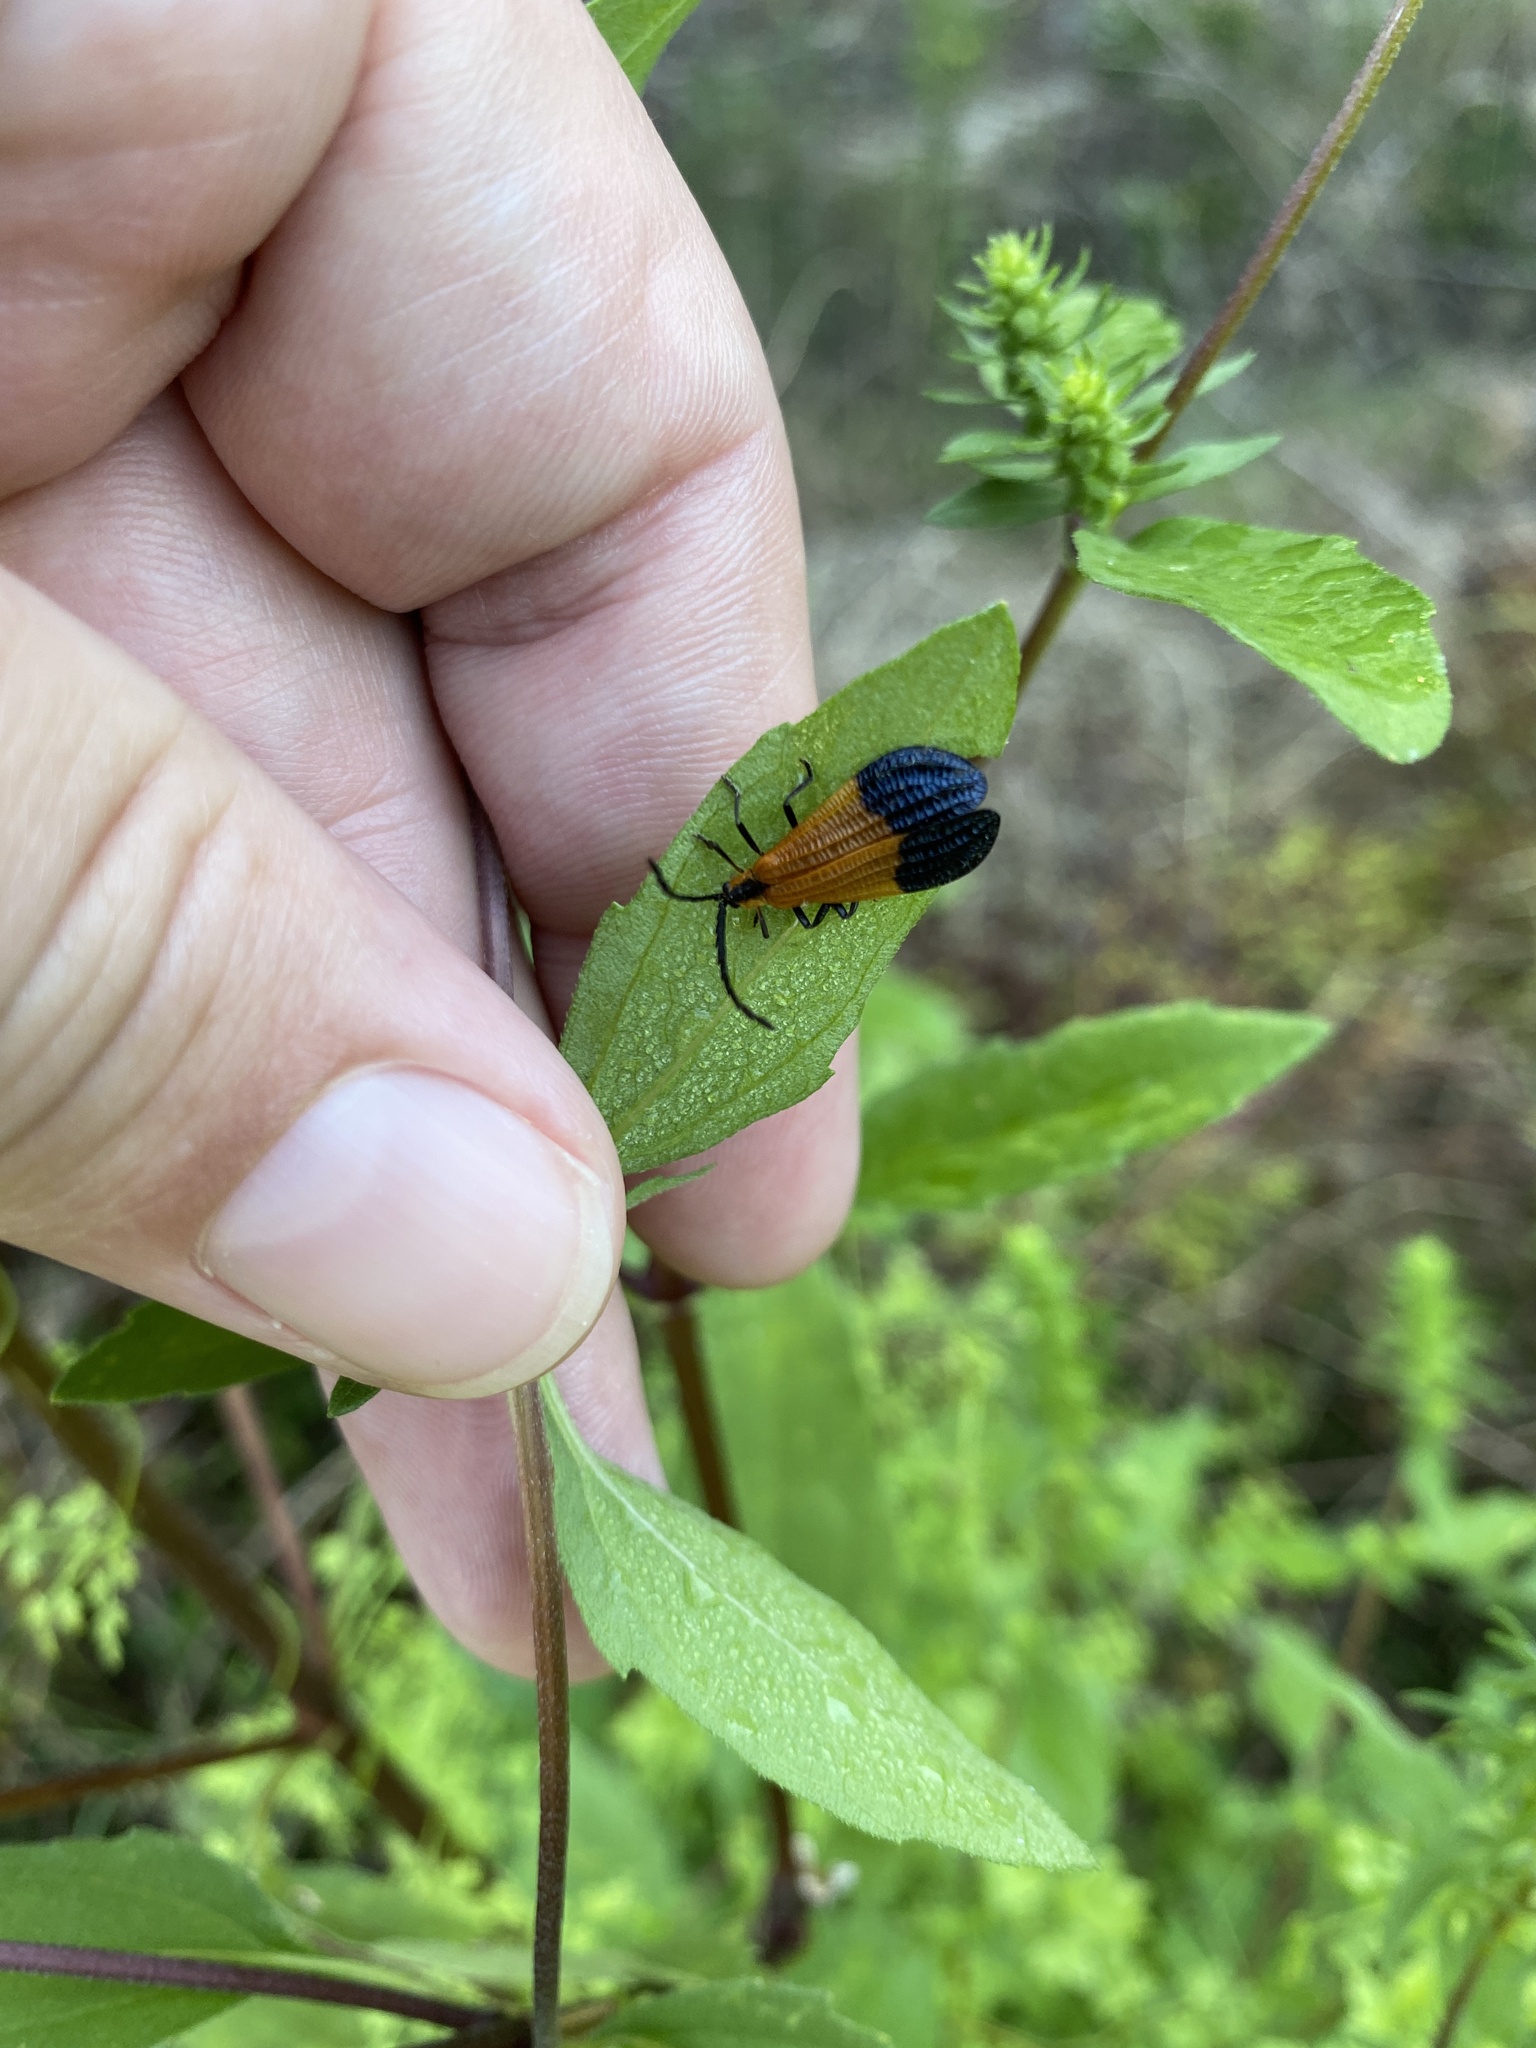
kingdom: Animalia
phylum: Arthropoda
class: Insecta
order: Coleoptera
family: Lycidae
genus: Calopteron
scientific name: Calopteron terminale
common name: End band net-winged beetle
